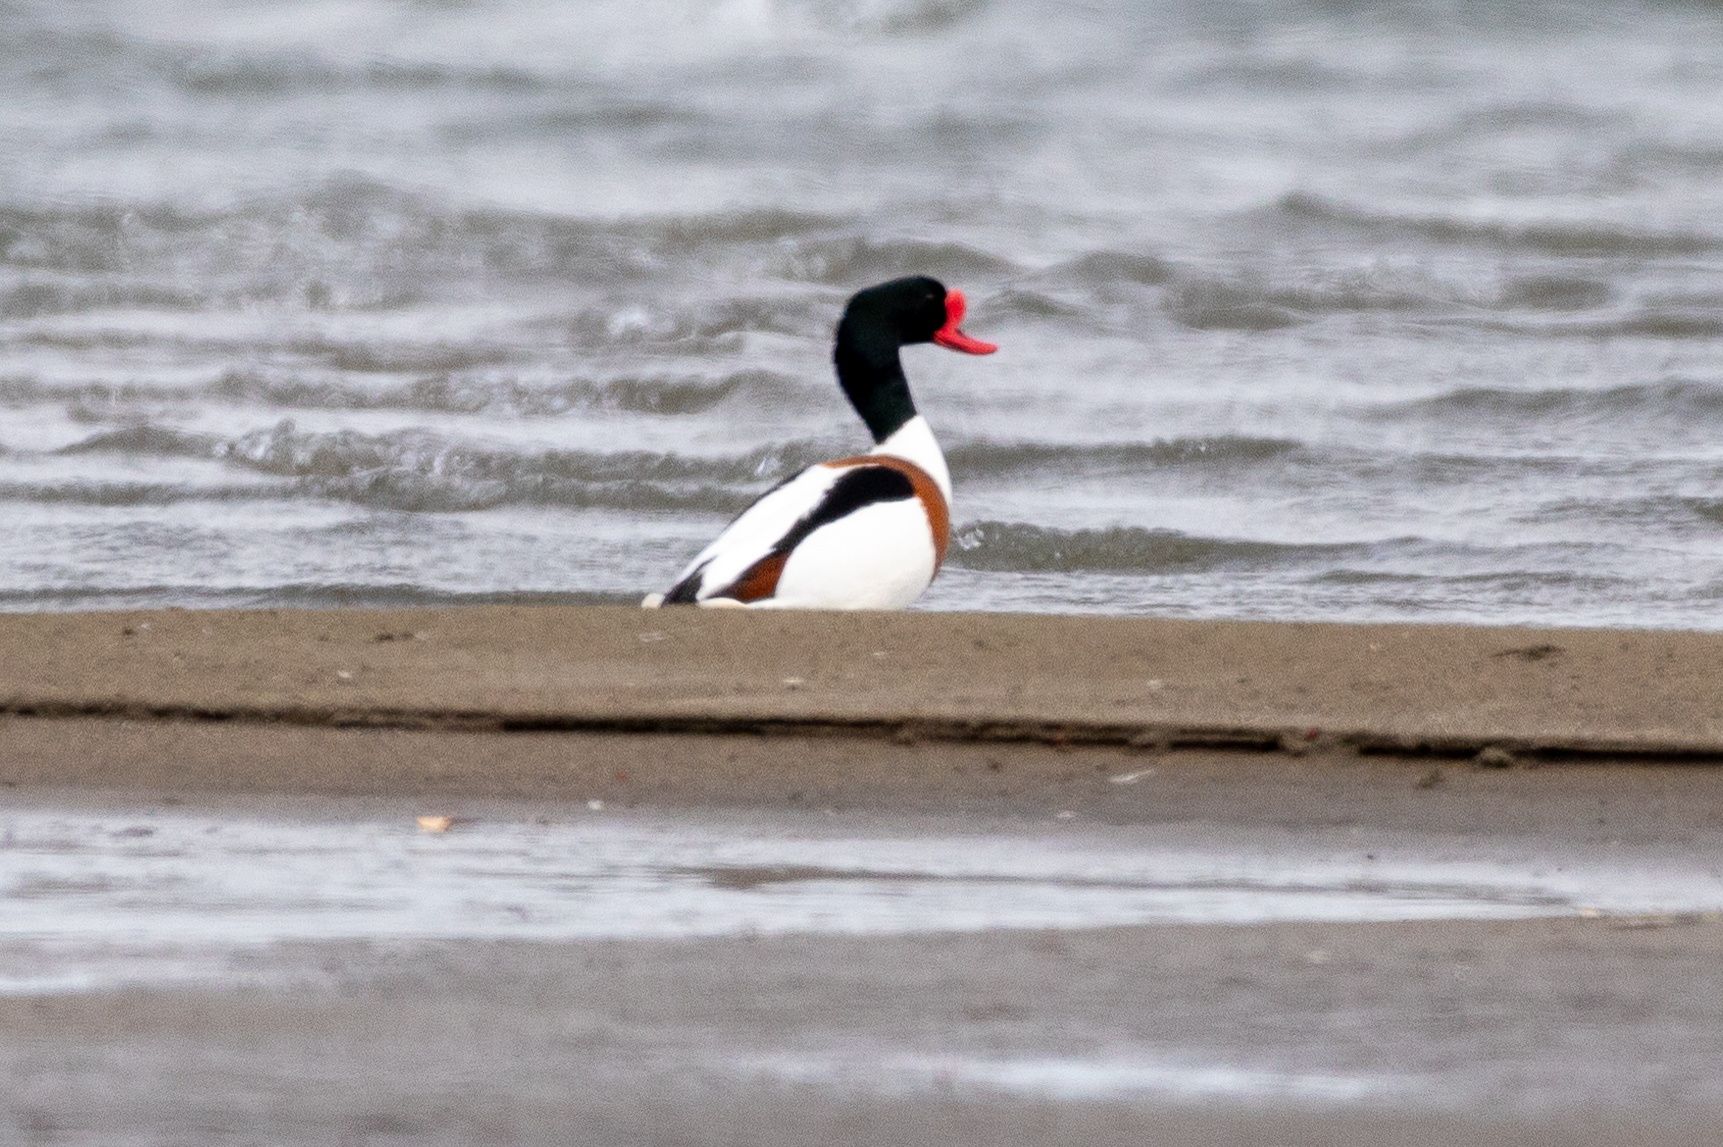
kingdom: Animalia
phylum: Chordata
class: Aves
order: Anseriformes
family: Anatidae
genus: Tadorna
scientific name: Tadorna tadorna
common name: Common shelduck
